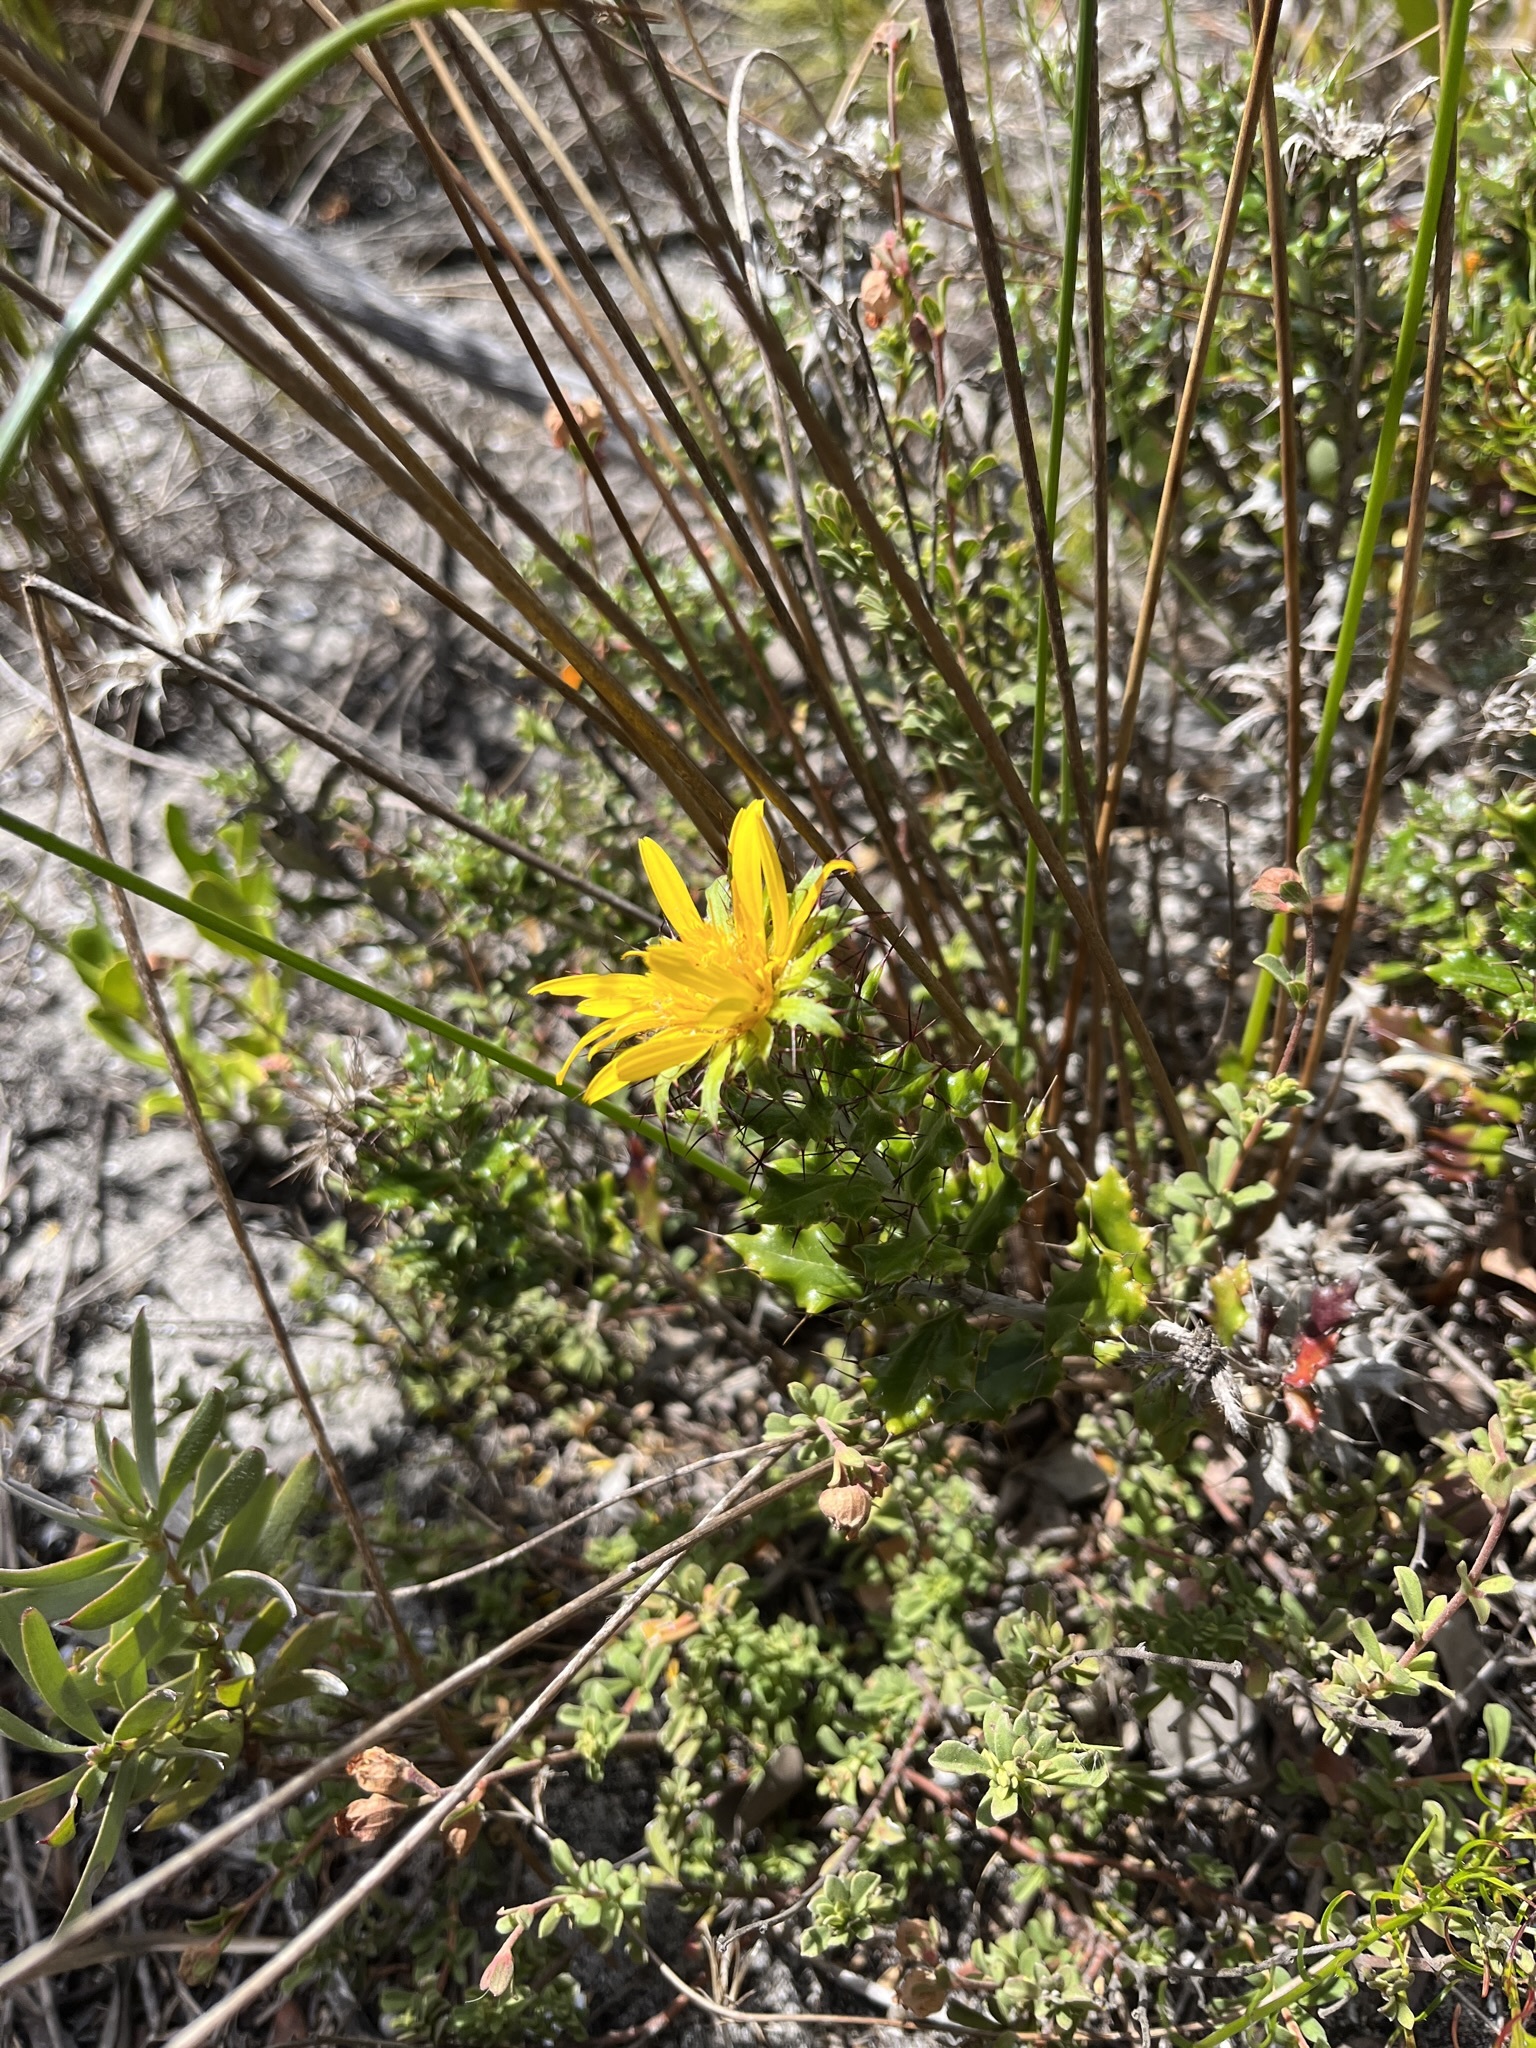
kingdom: Plantae
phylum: Tracheophyta
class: Magnoliopsida
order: Asterales
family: Asteraceae
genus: Berkheya
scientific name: Berkheya coriacea
